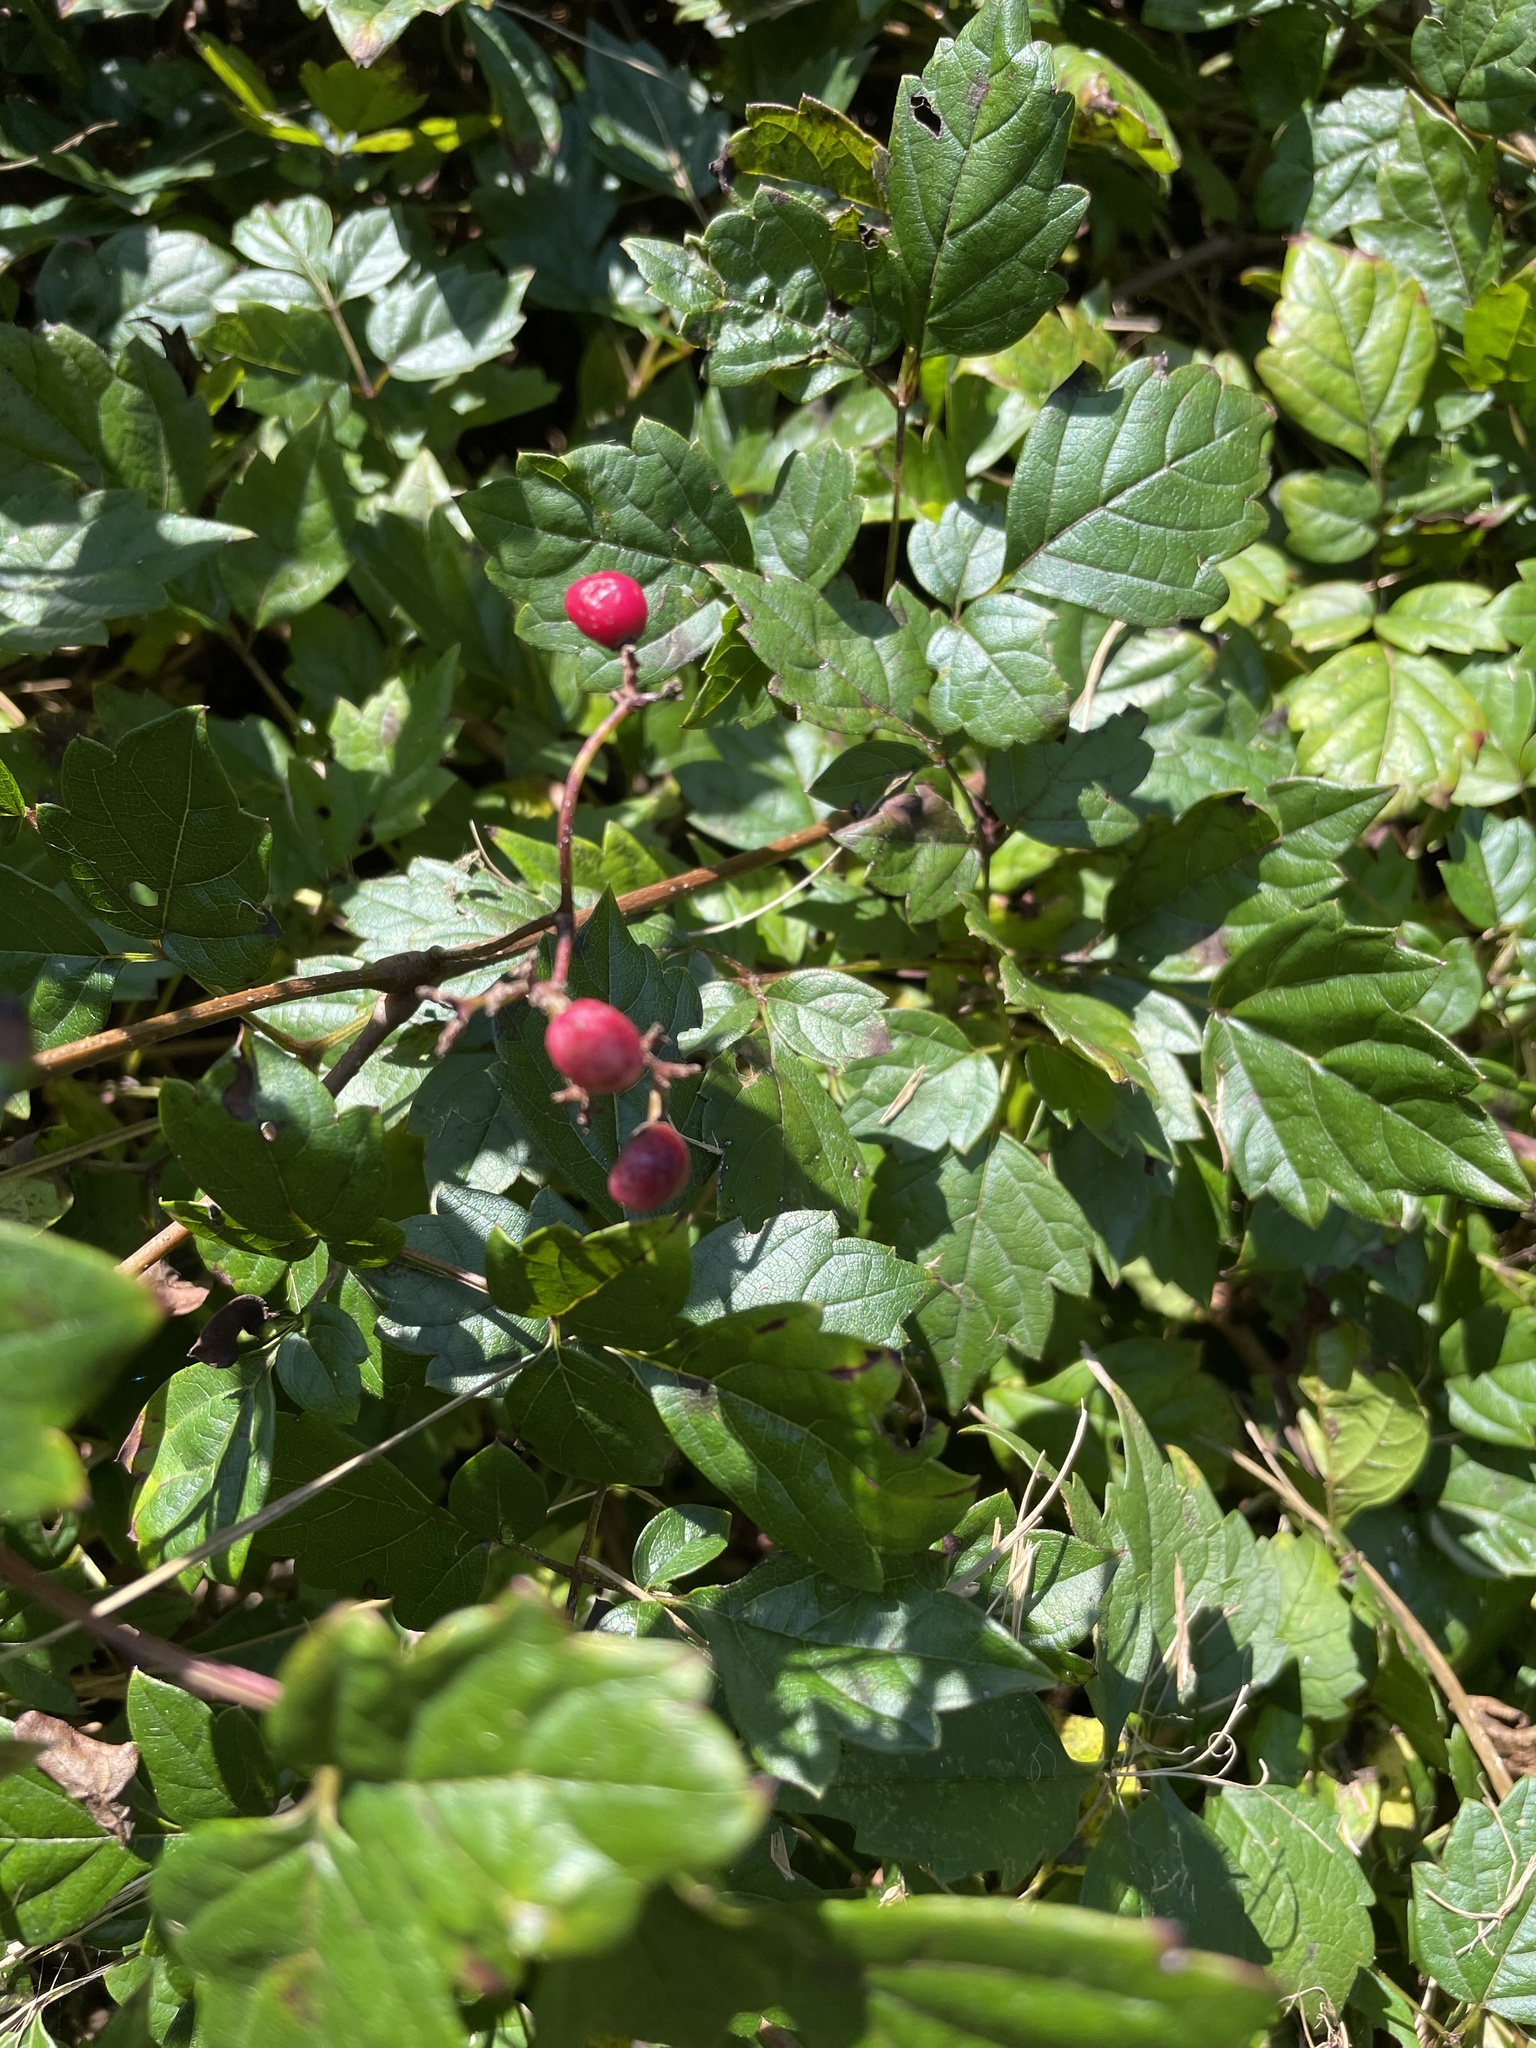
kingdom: Plantae
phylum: Tracheophyta
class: Magnoliopsida
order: Vitales
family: Vitaceae
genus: Nekemias
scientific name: Nekemias arborea
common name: Peppervine
